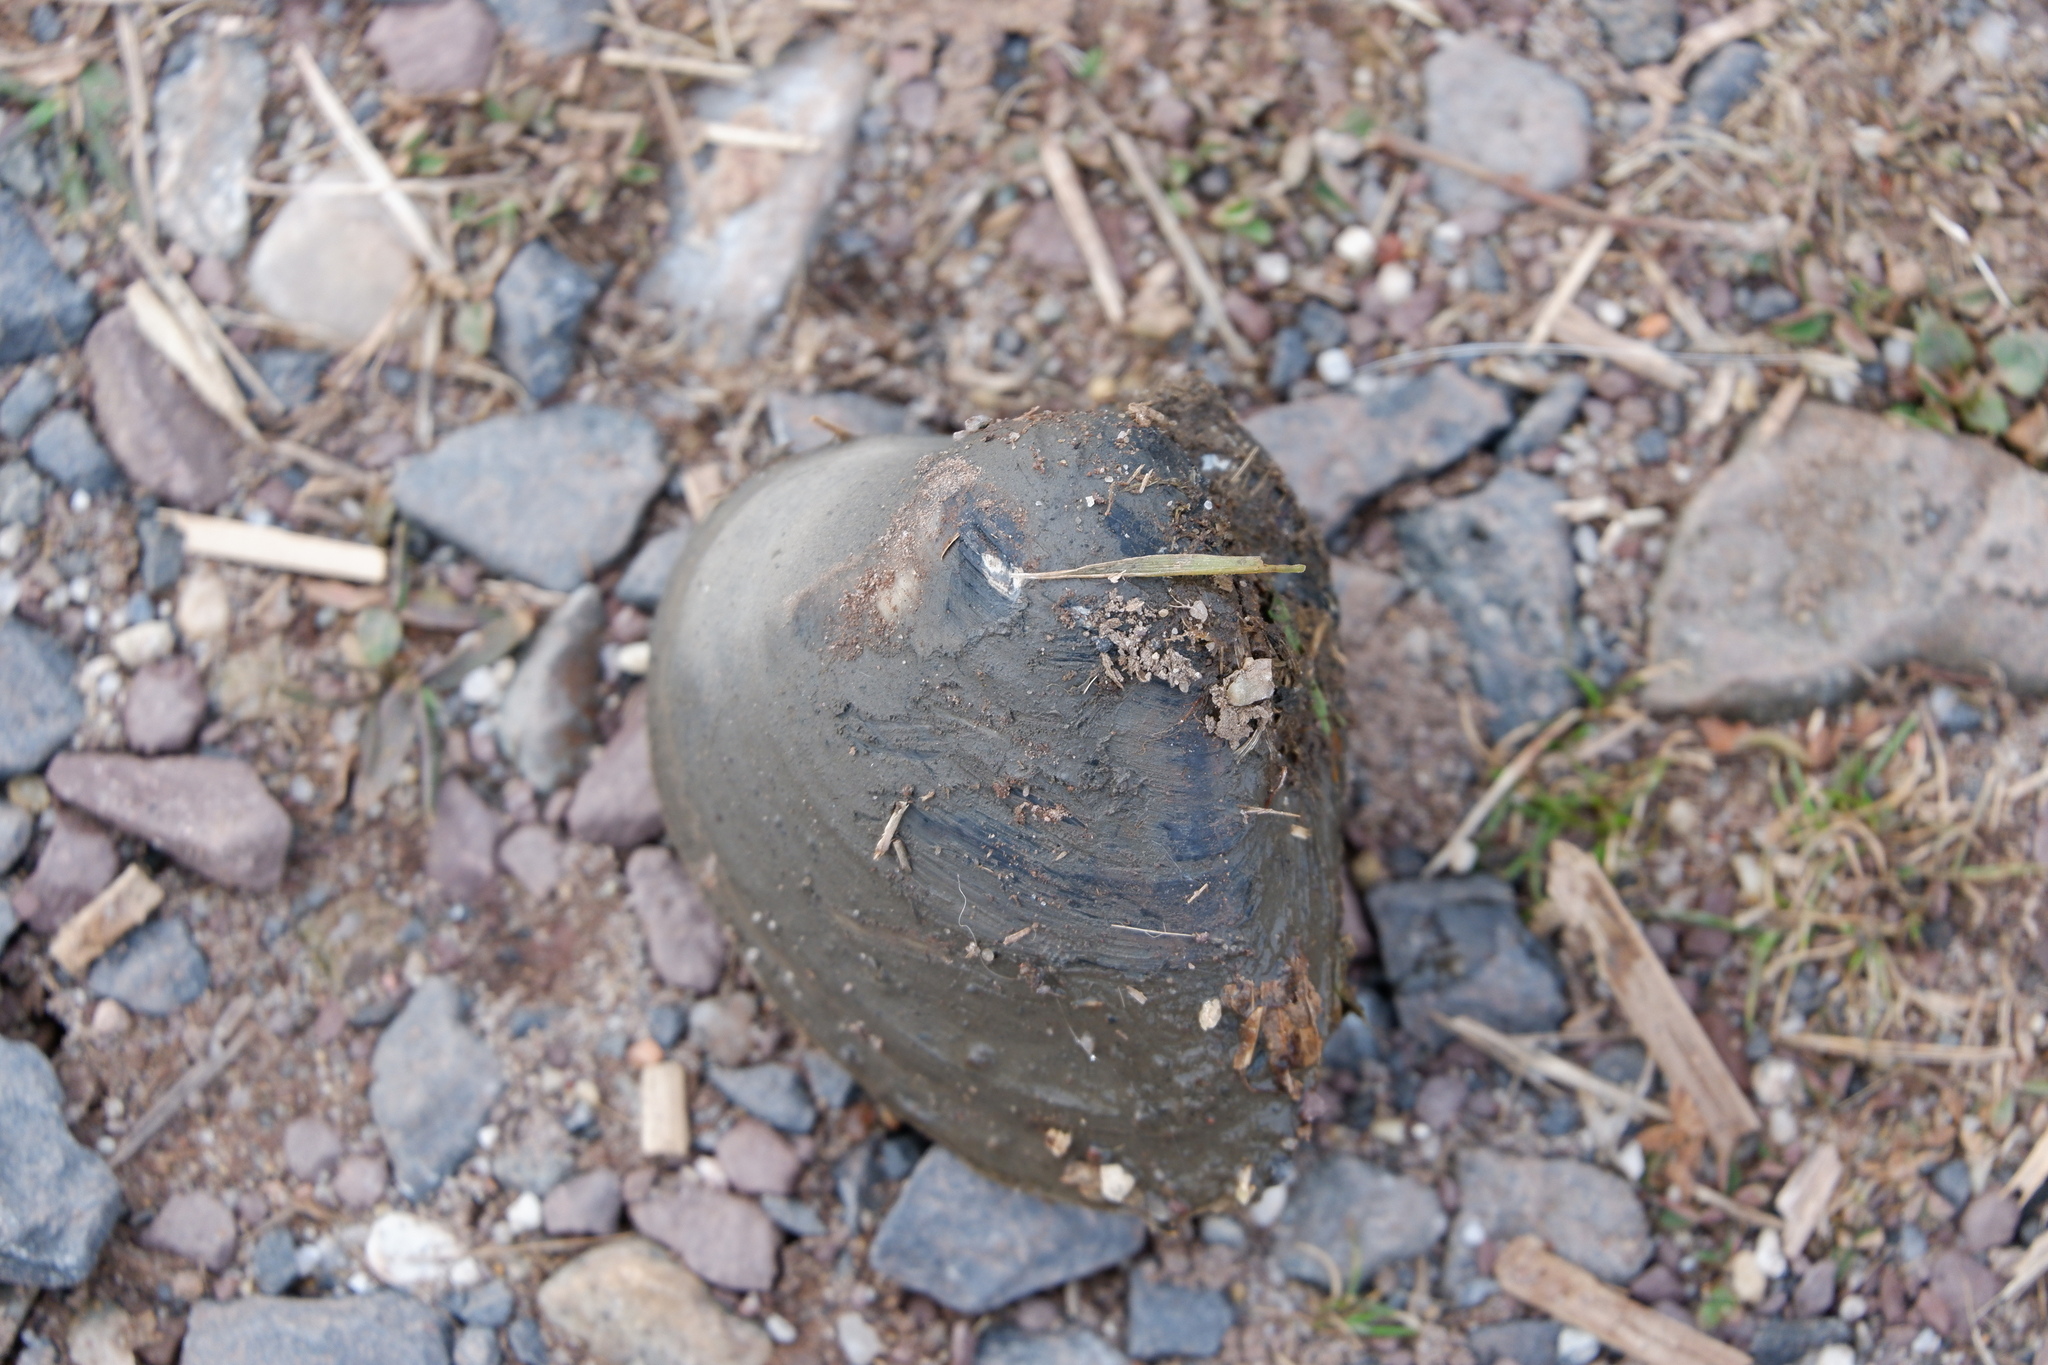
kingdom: Animalia
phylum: Mollusca
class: Bivalvia
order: Venerida
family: Mactridae
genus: Rangia
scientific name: Rangia cuneata
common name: Atlantic rangia
